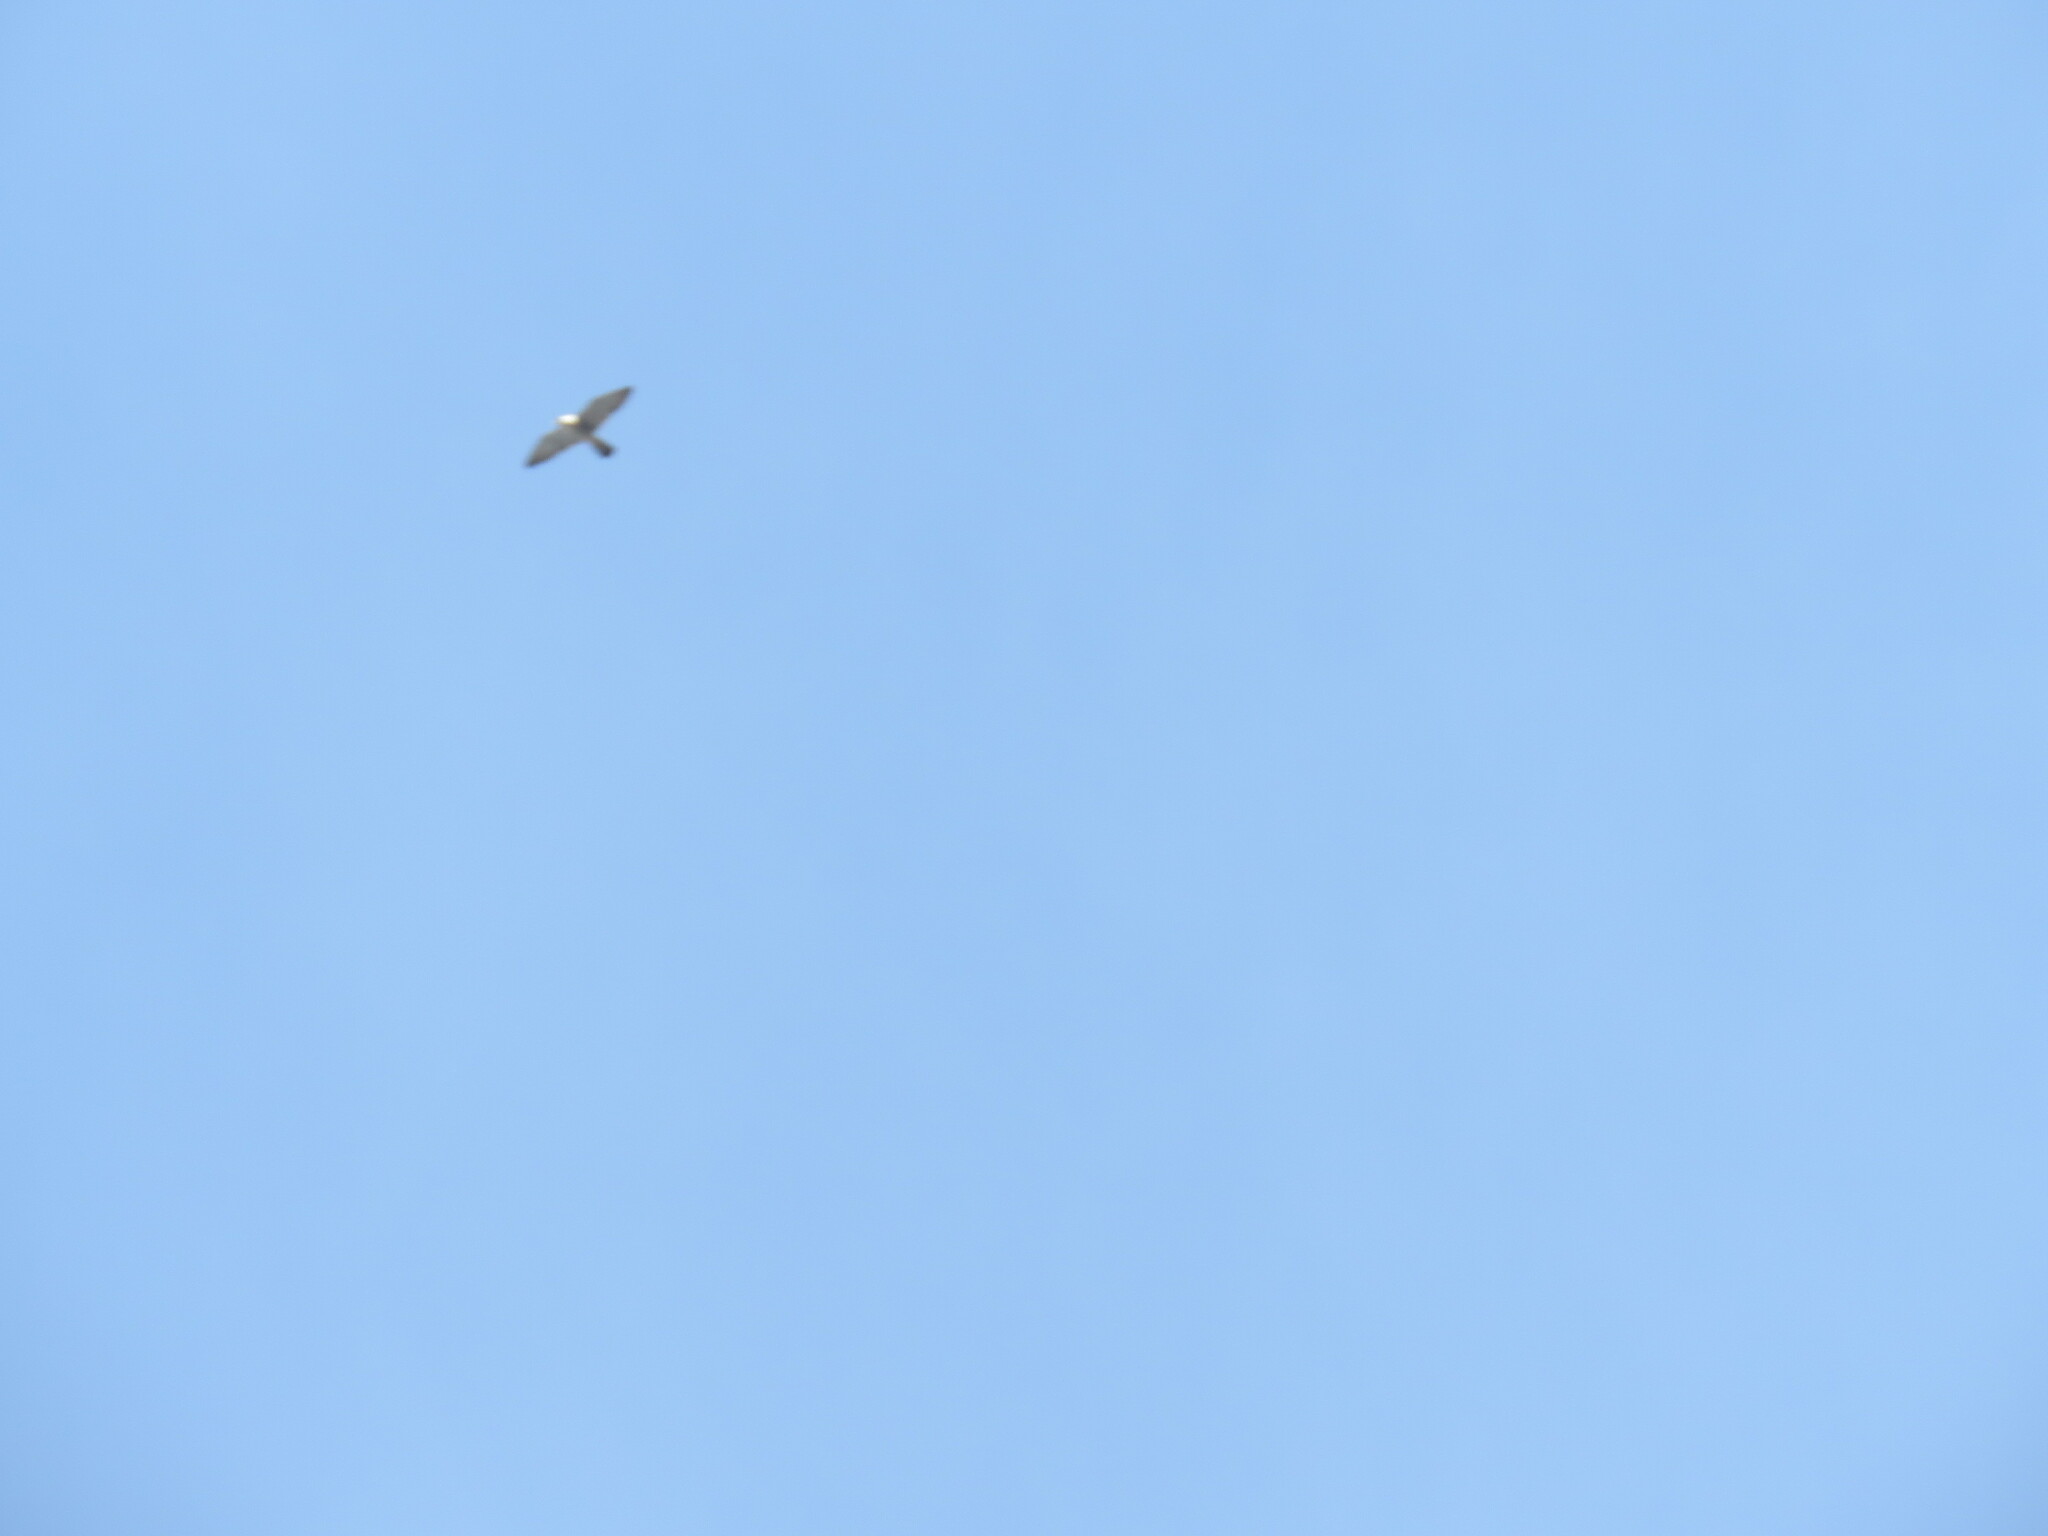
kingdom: Animalia
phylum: Chordata
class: Aves
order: Falconiformes
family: Falconidae
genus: Falco
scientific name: Falco peregrinus
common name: Peregrine falcon
